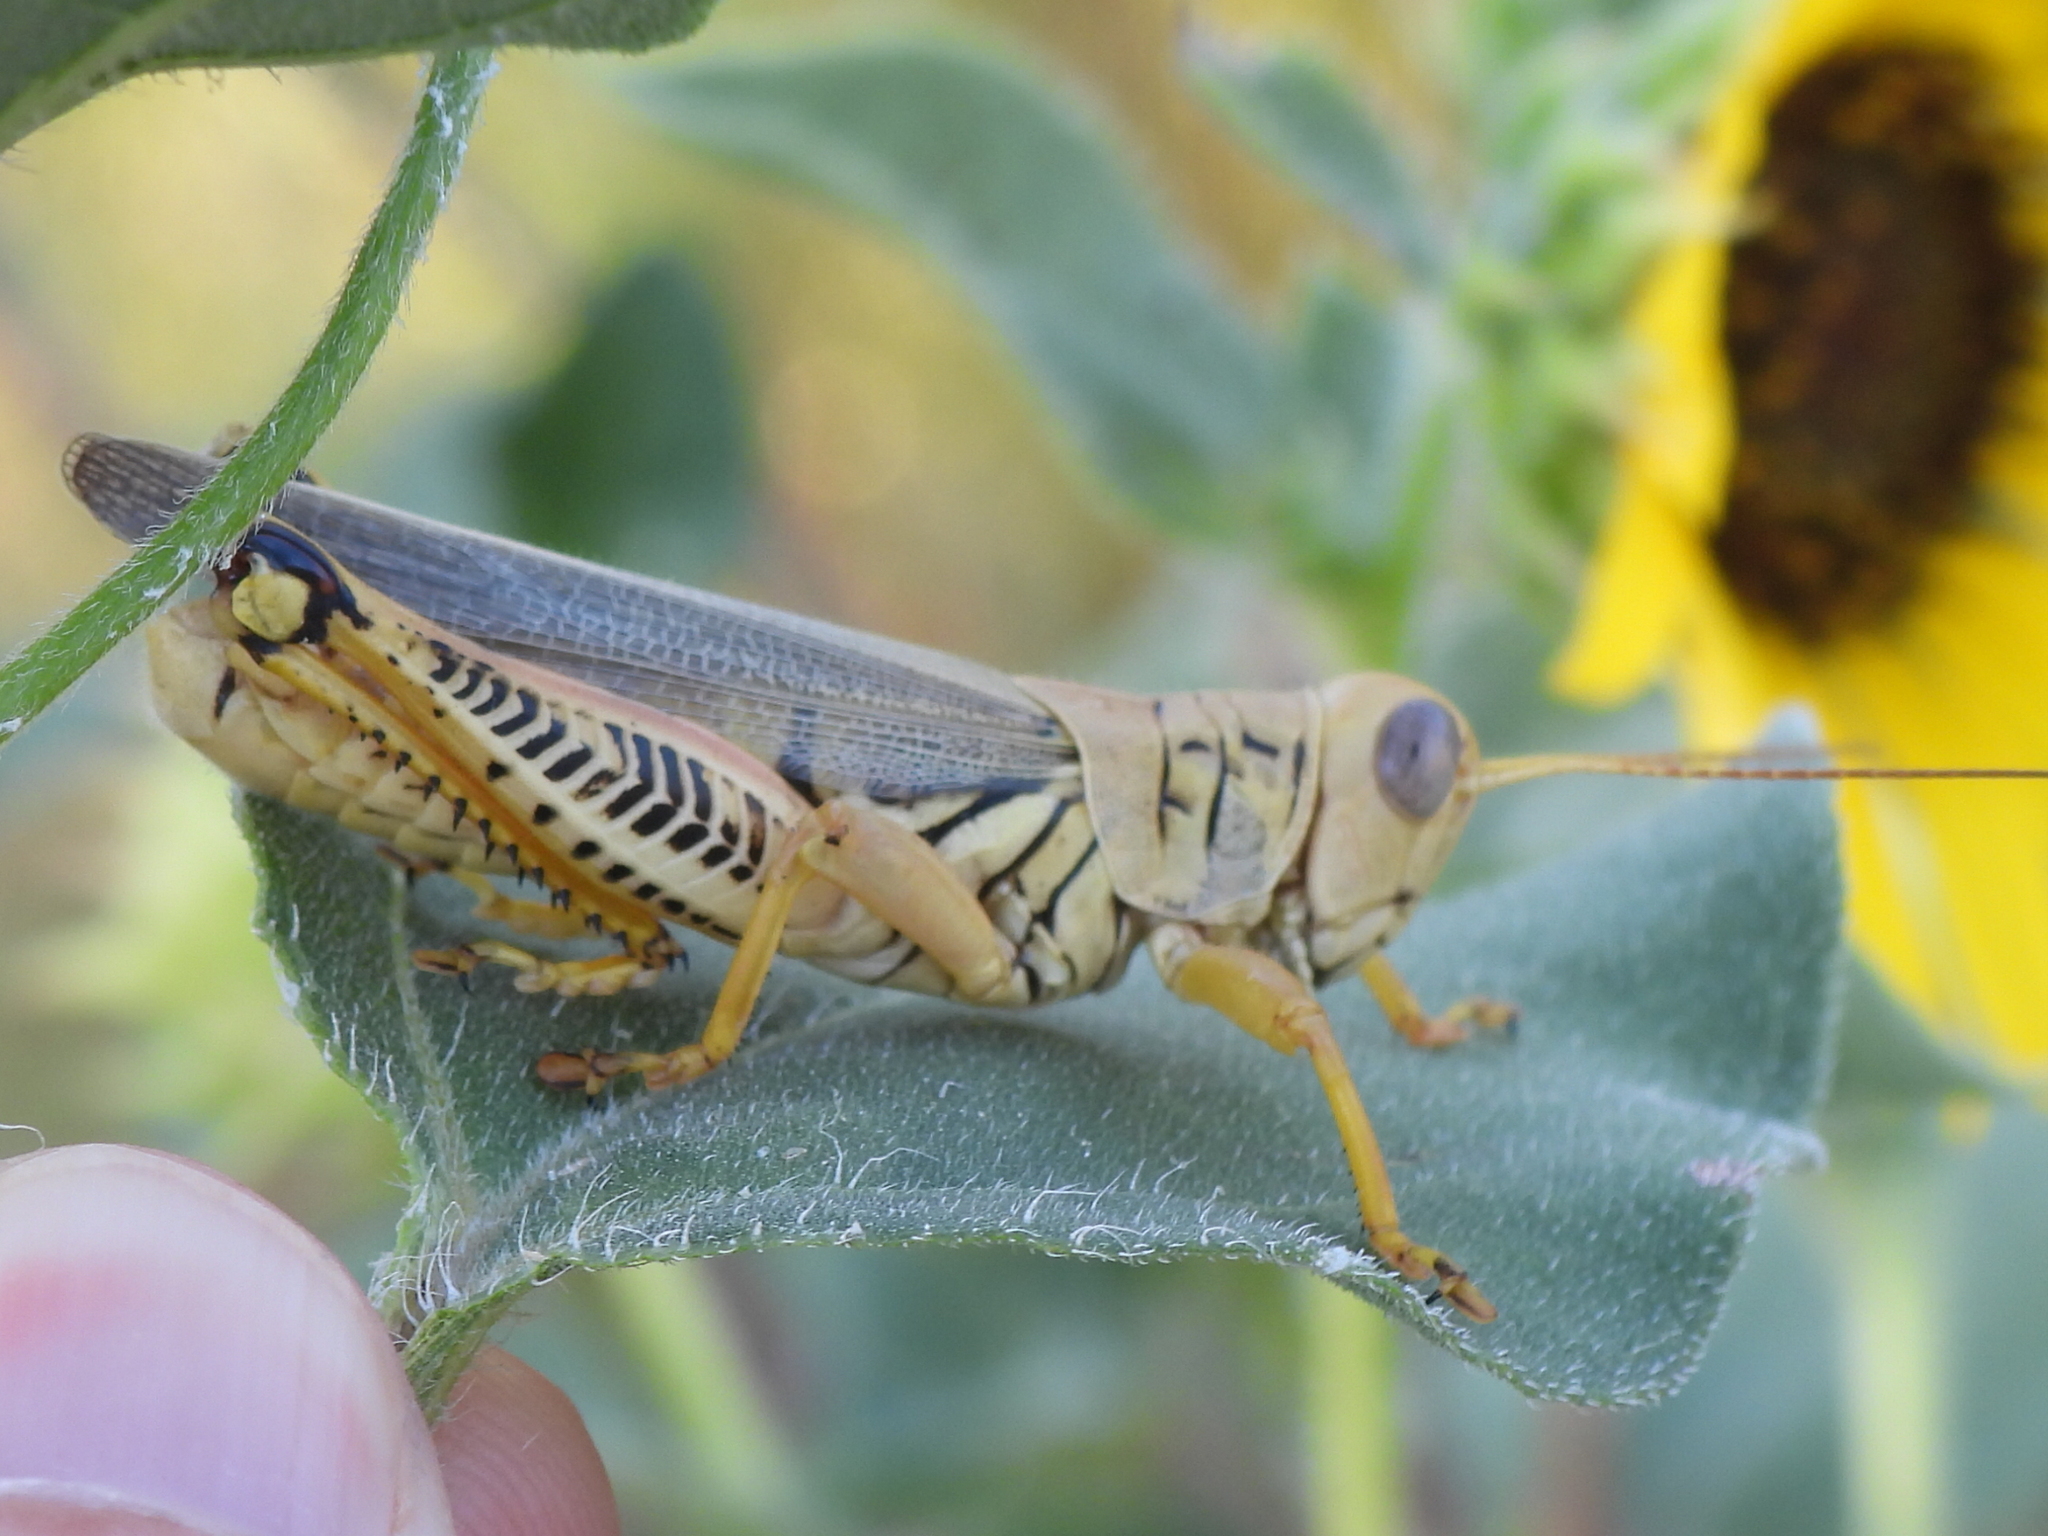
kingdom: Animalia
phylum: Arthropoda
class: Insecta
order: Orthoptera
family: Acrididae
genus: Melanoplus
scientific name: Melanoplus differentialis
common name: Differential grasshopper
